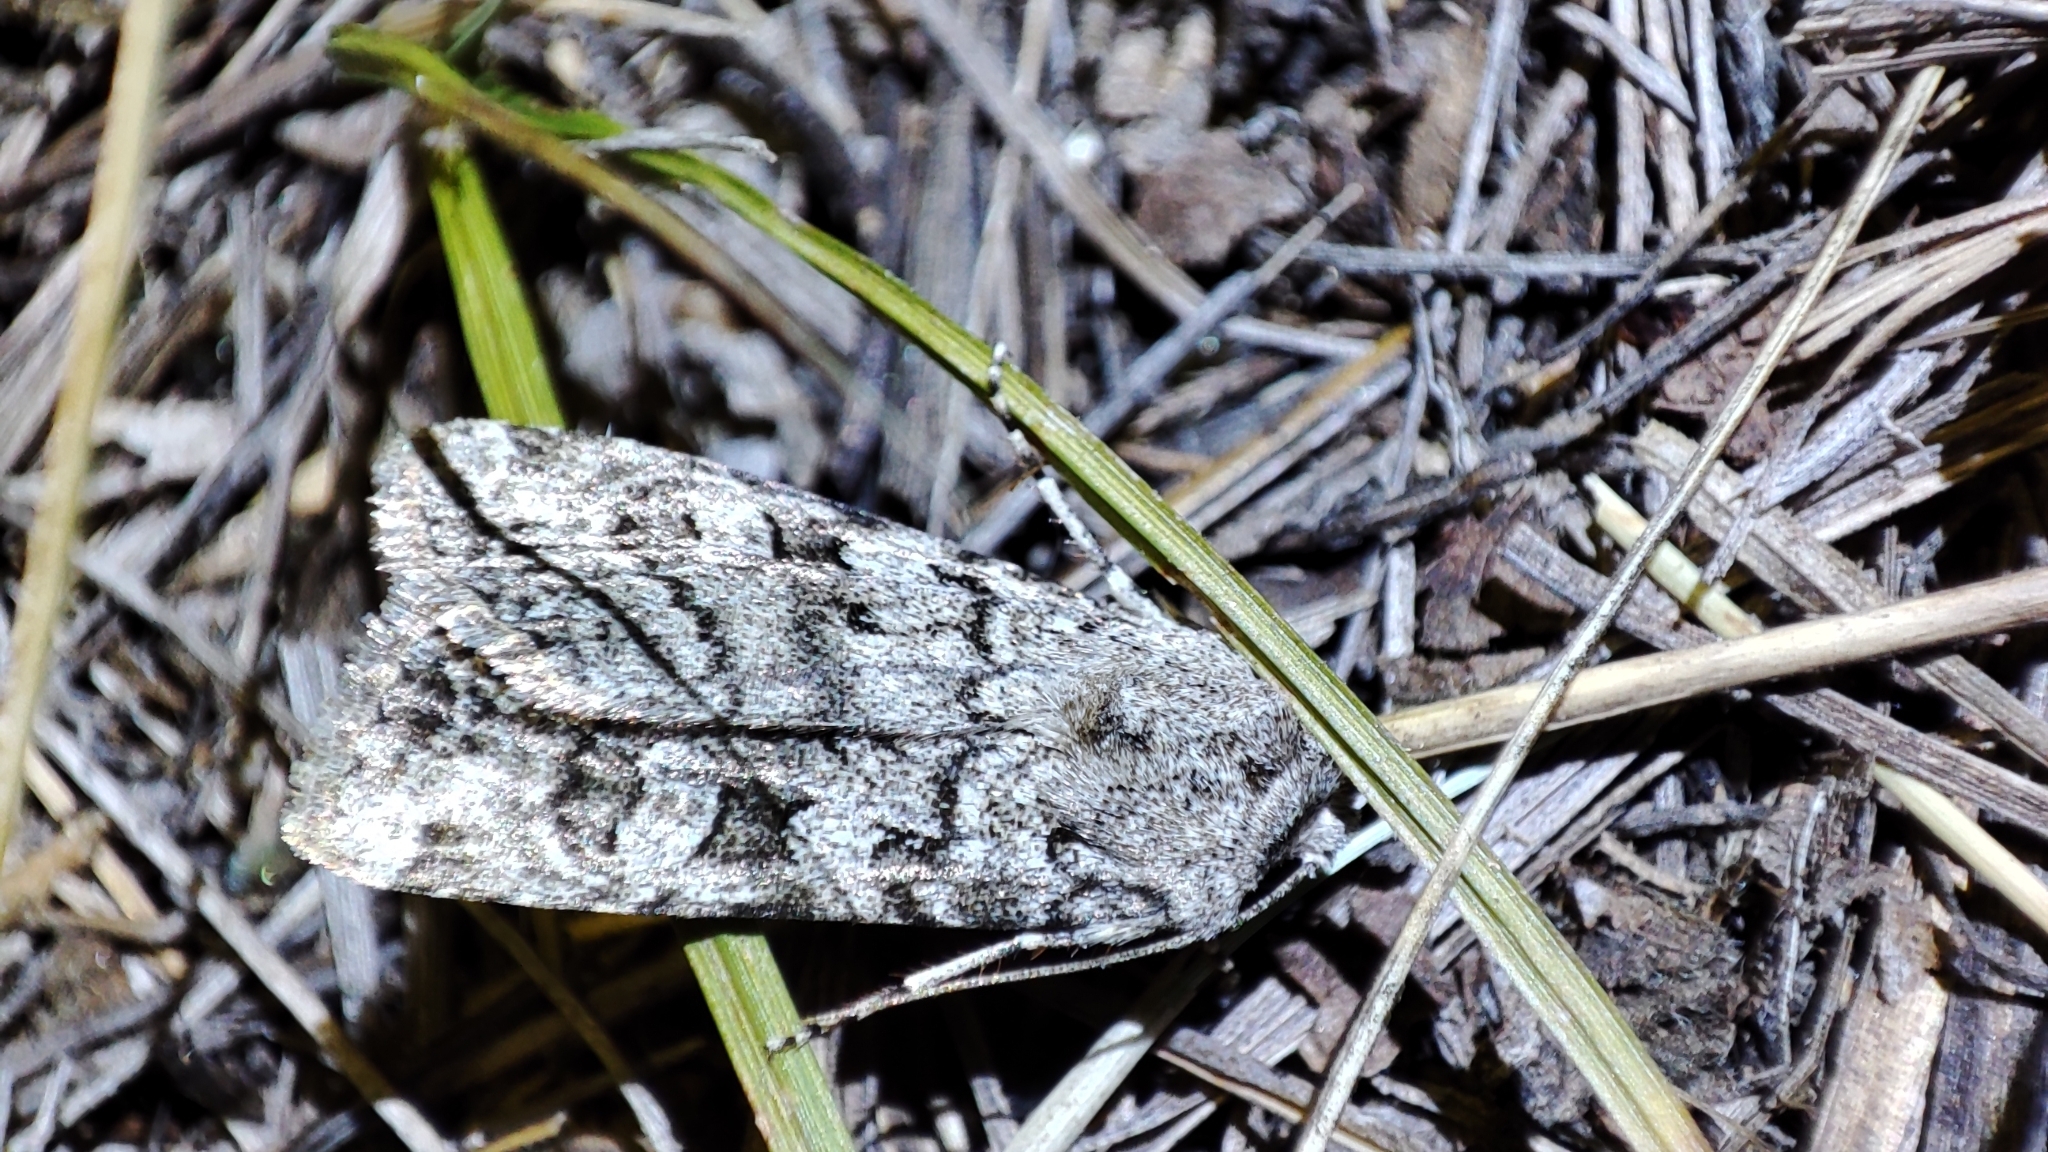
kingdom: Animalia
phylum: Arthropoda
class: Insecta
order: Lepidoptera
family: Noctuidae
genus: Euxoa
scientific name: Euxoa deserta
